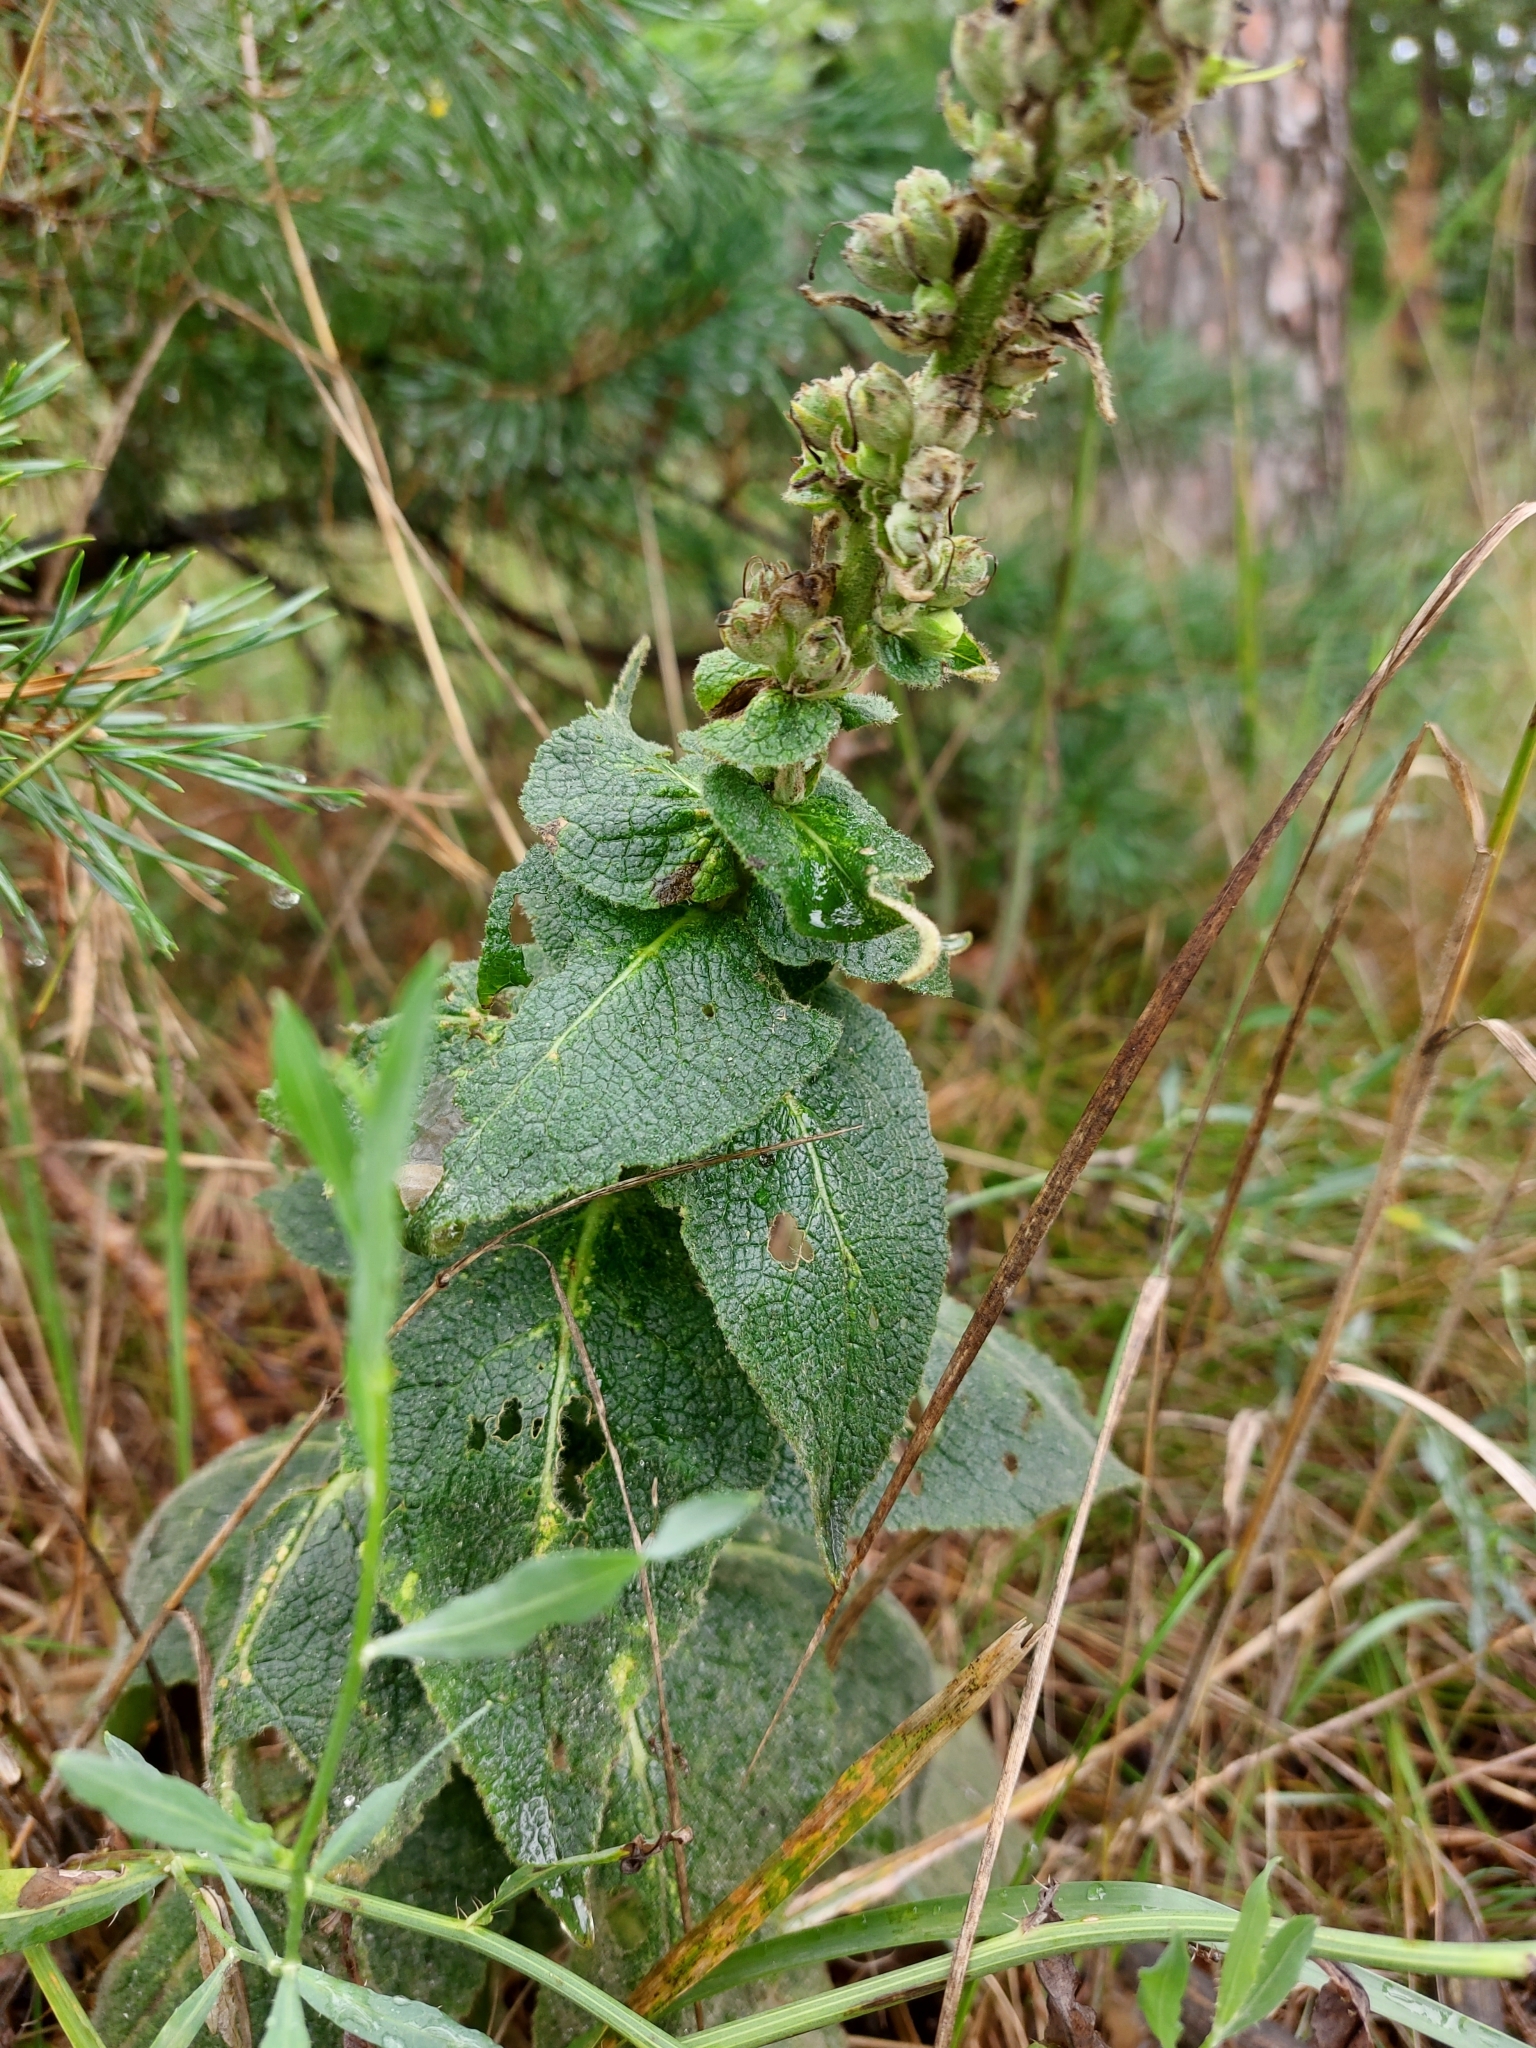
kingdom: Plantae
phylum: Tracheophyta
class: Magnoliopsida
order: Lamiales
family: Scrophulariaceae
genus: Verbascum
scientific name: Verbascum phlomoides
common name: Orange mullein
